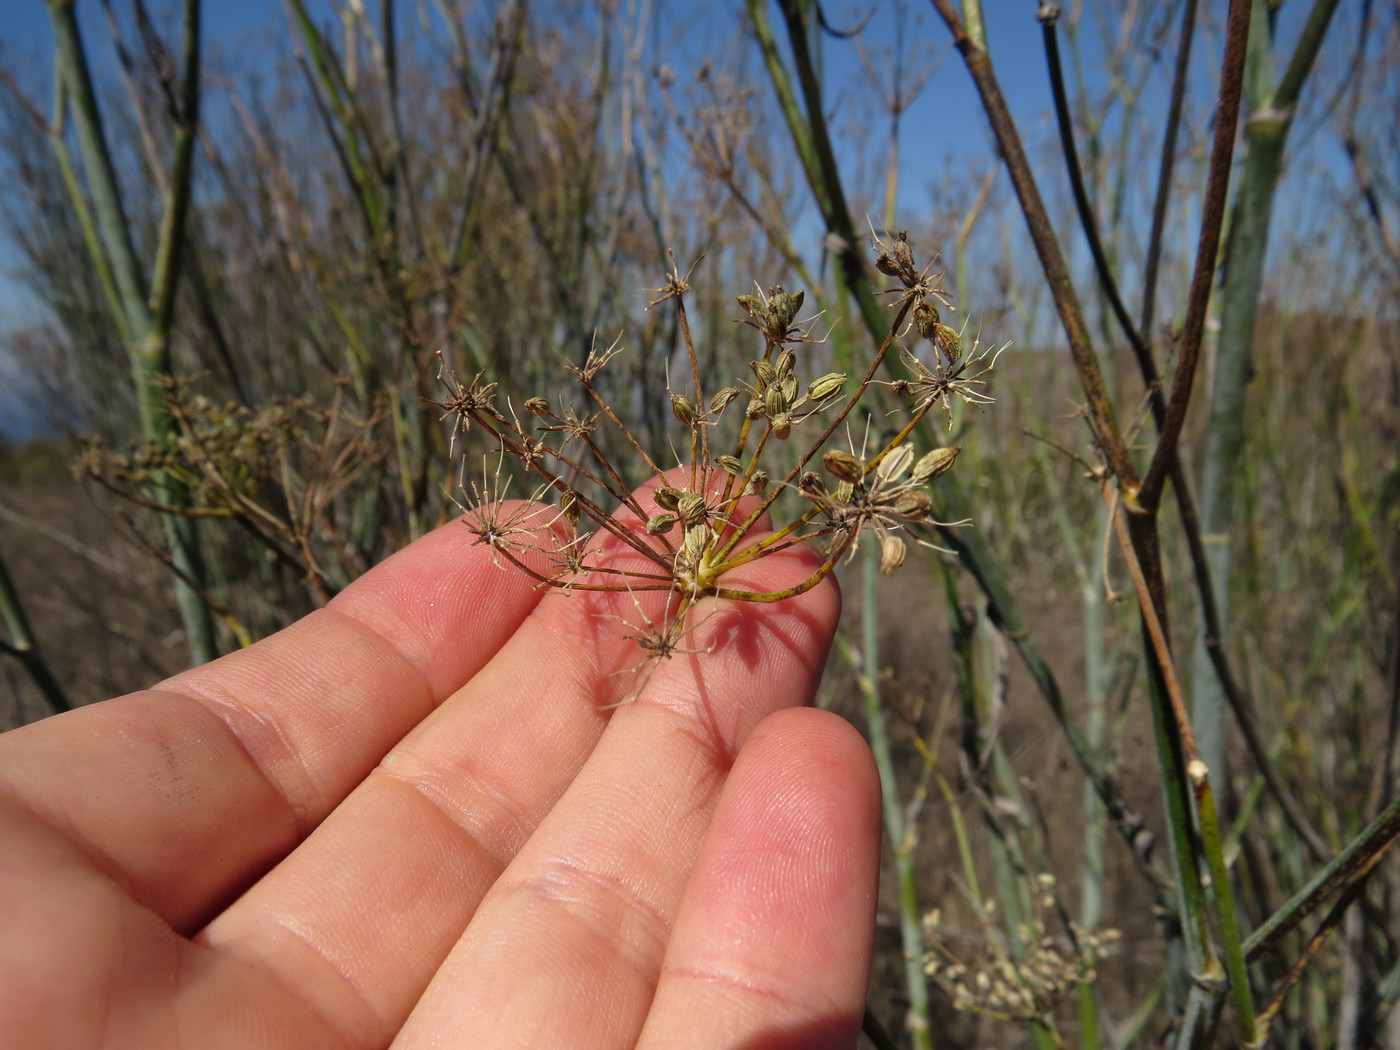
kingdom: Plantae
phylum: Tracheophyta
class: Magnoliopsida
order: Apiales
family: Apiaceae
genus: Foeniculum
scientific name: Foeniculum vulgare
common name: Fennel
